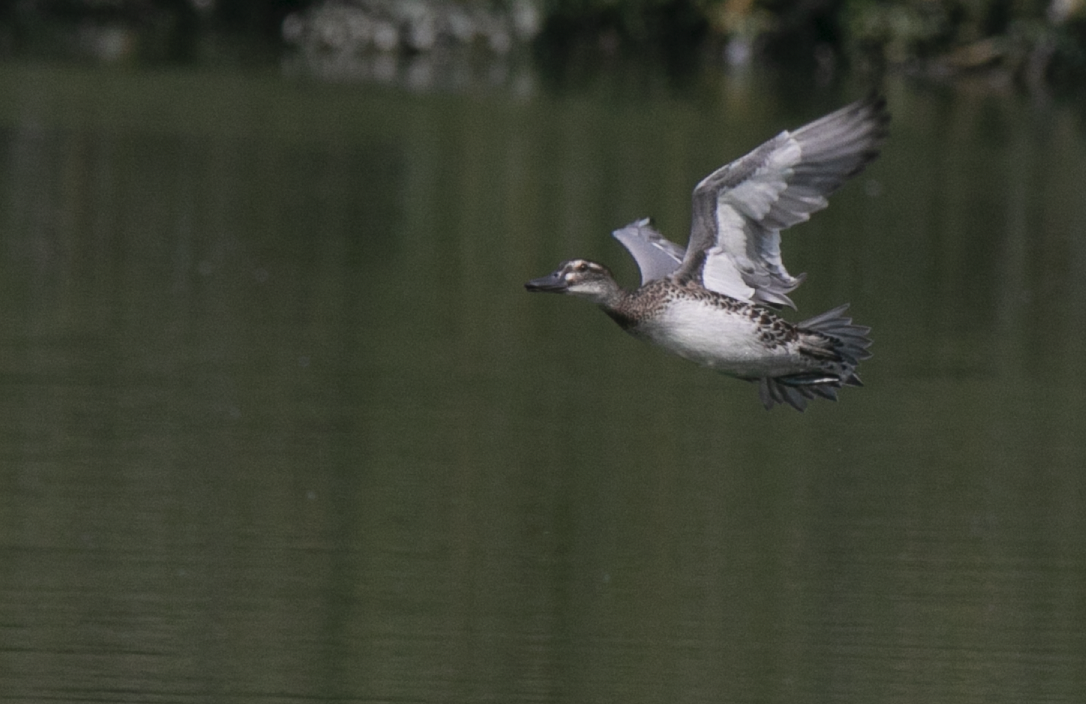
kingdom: Animalia
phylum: Chordata
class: Aves
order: Anseriformes
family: Anatidae
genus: Spatula
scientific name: Spatula querquedula
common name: Garganey
